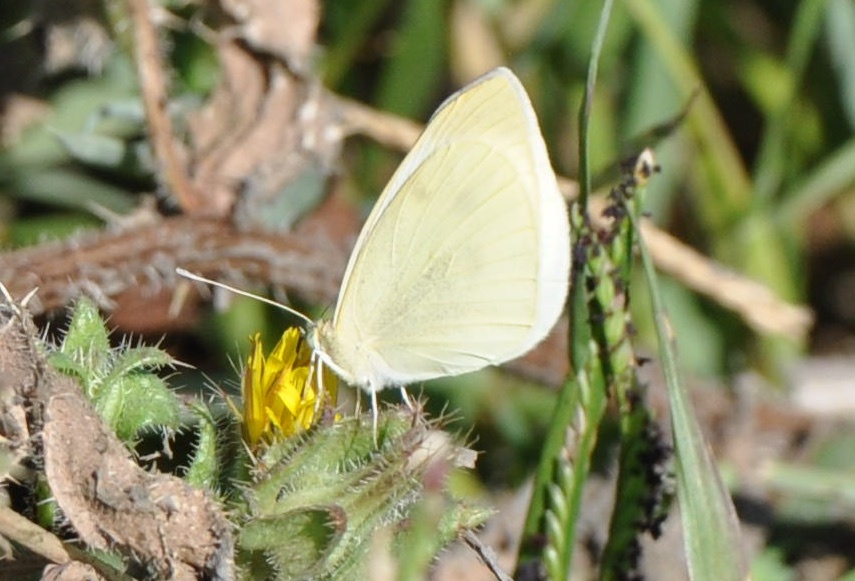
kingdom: Animalia
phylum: Arthropoda
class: Insecta
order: Lepidoptera
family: Pieridae
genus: Pieris
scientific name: Pieris rapae
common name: Small white
